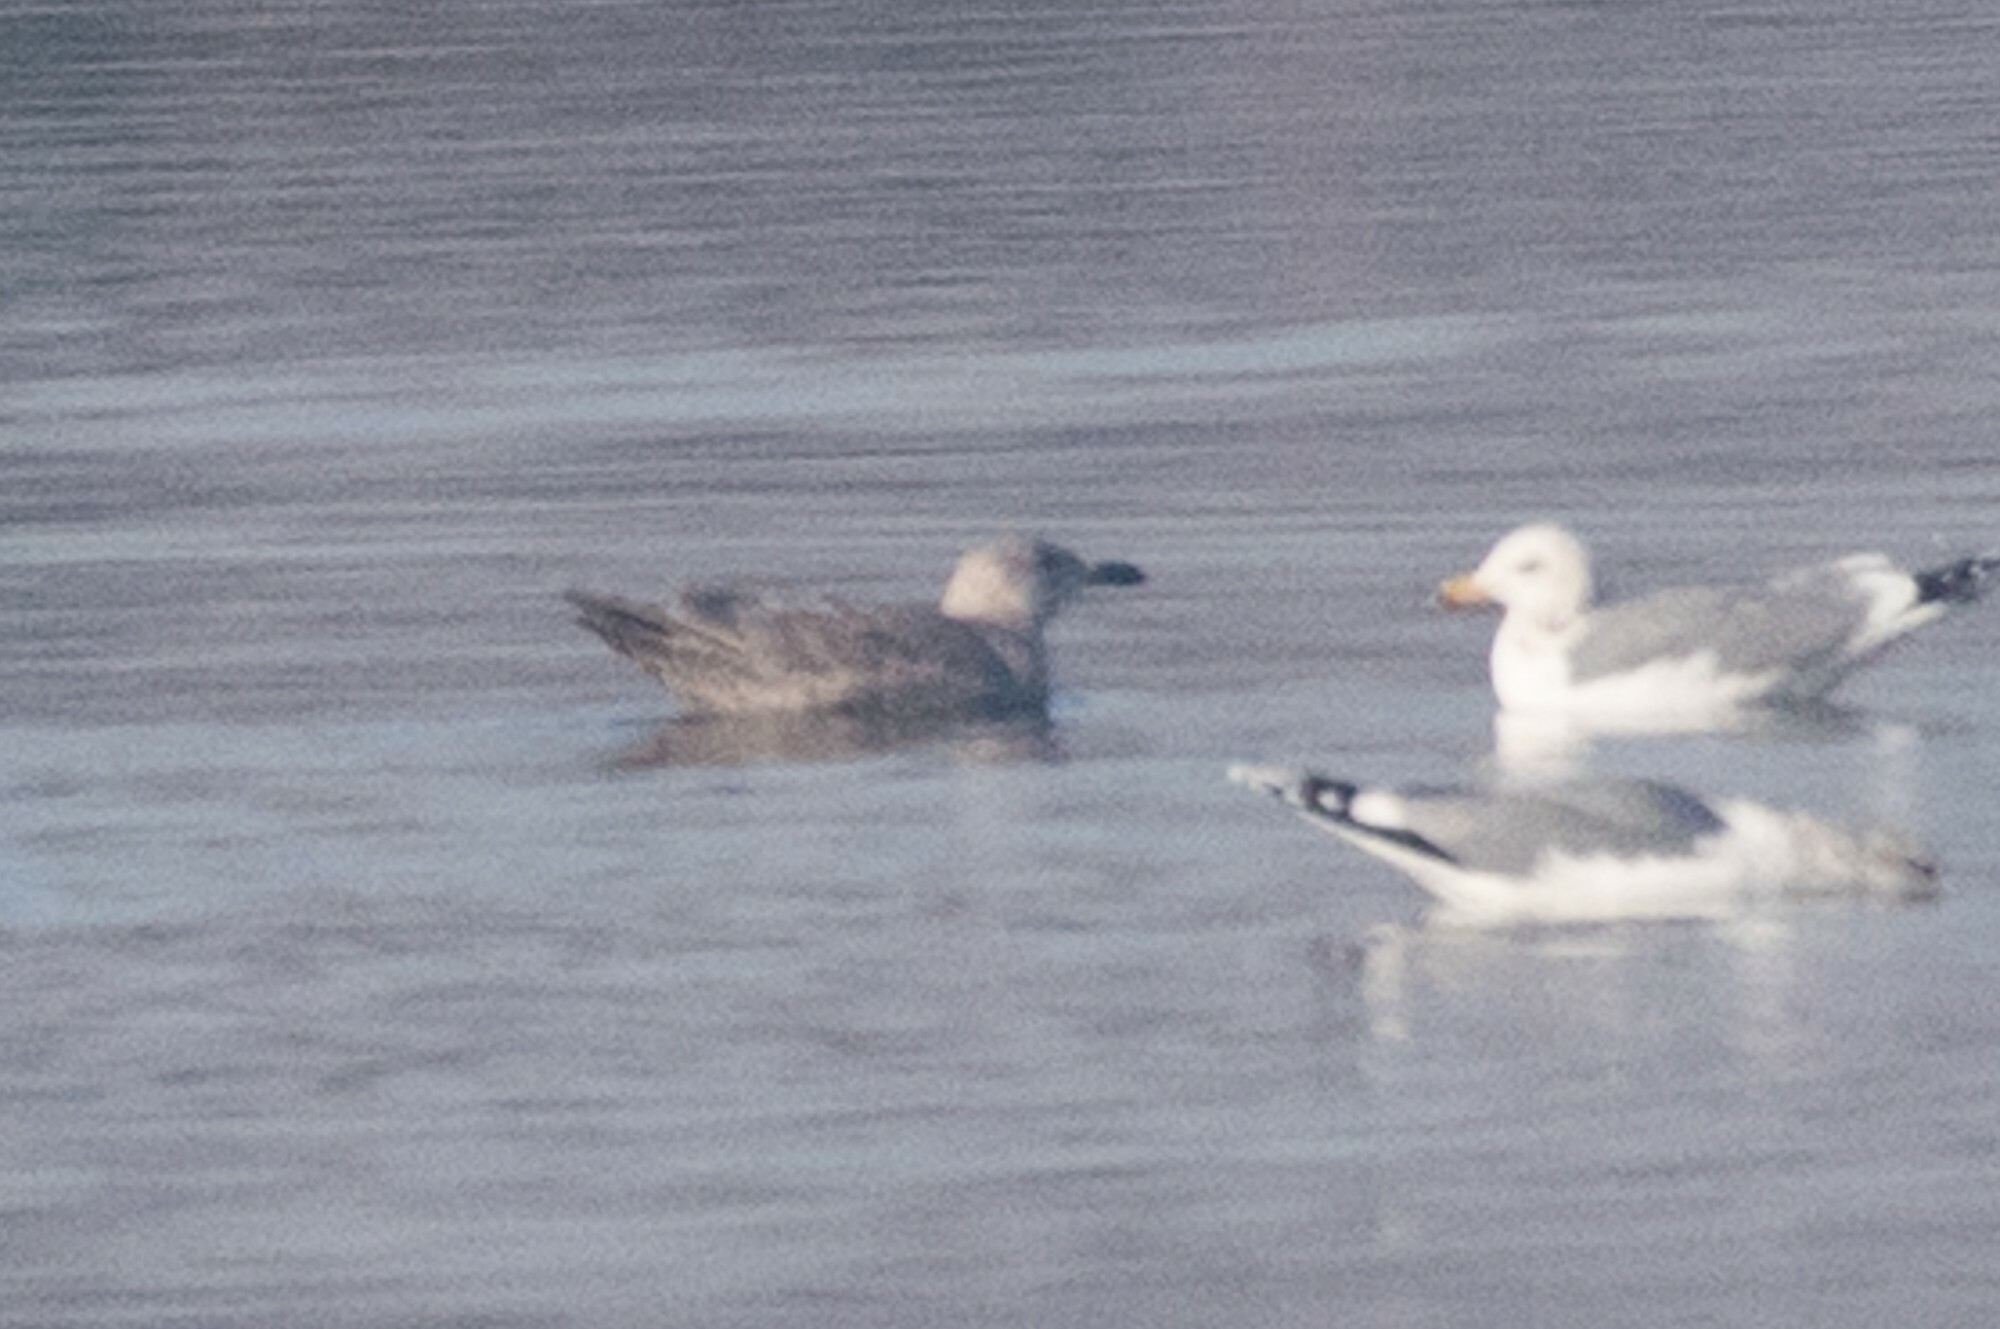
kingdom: Animalia
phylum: Chordata
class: Aves
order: Charadriiformes
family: Laridae
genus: Larus
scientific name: Larus glaucescens
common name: Glaucous-winged gull
